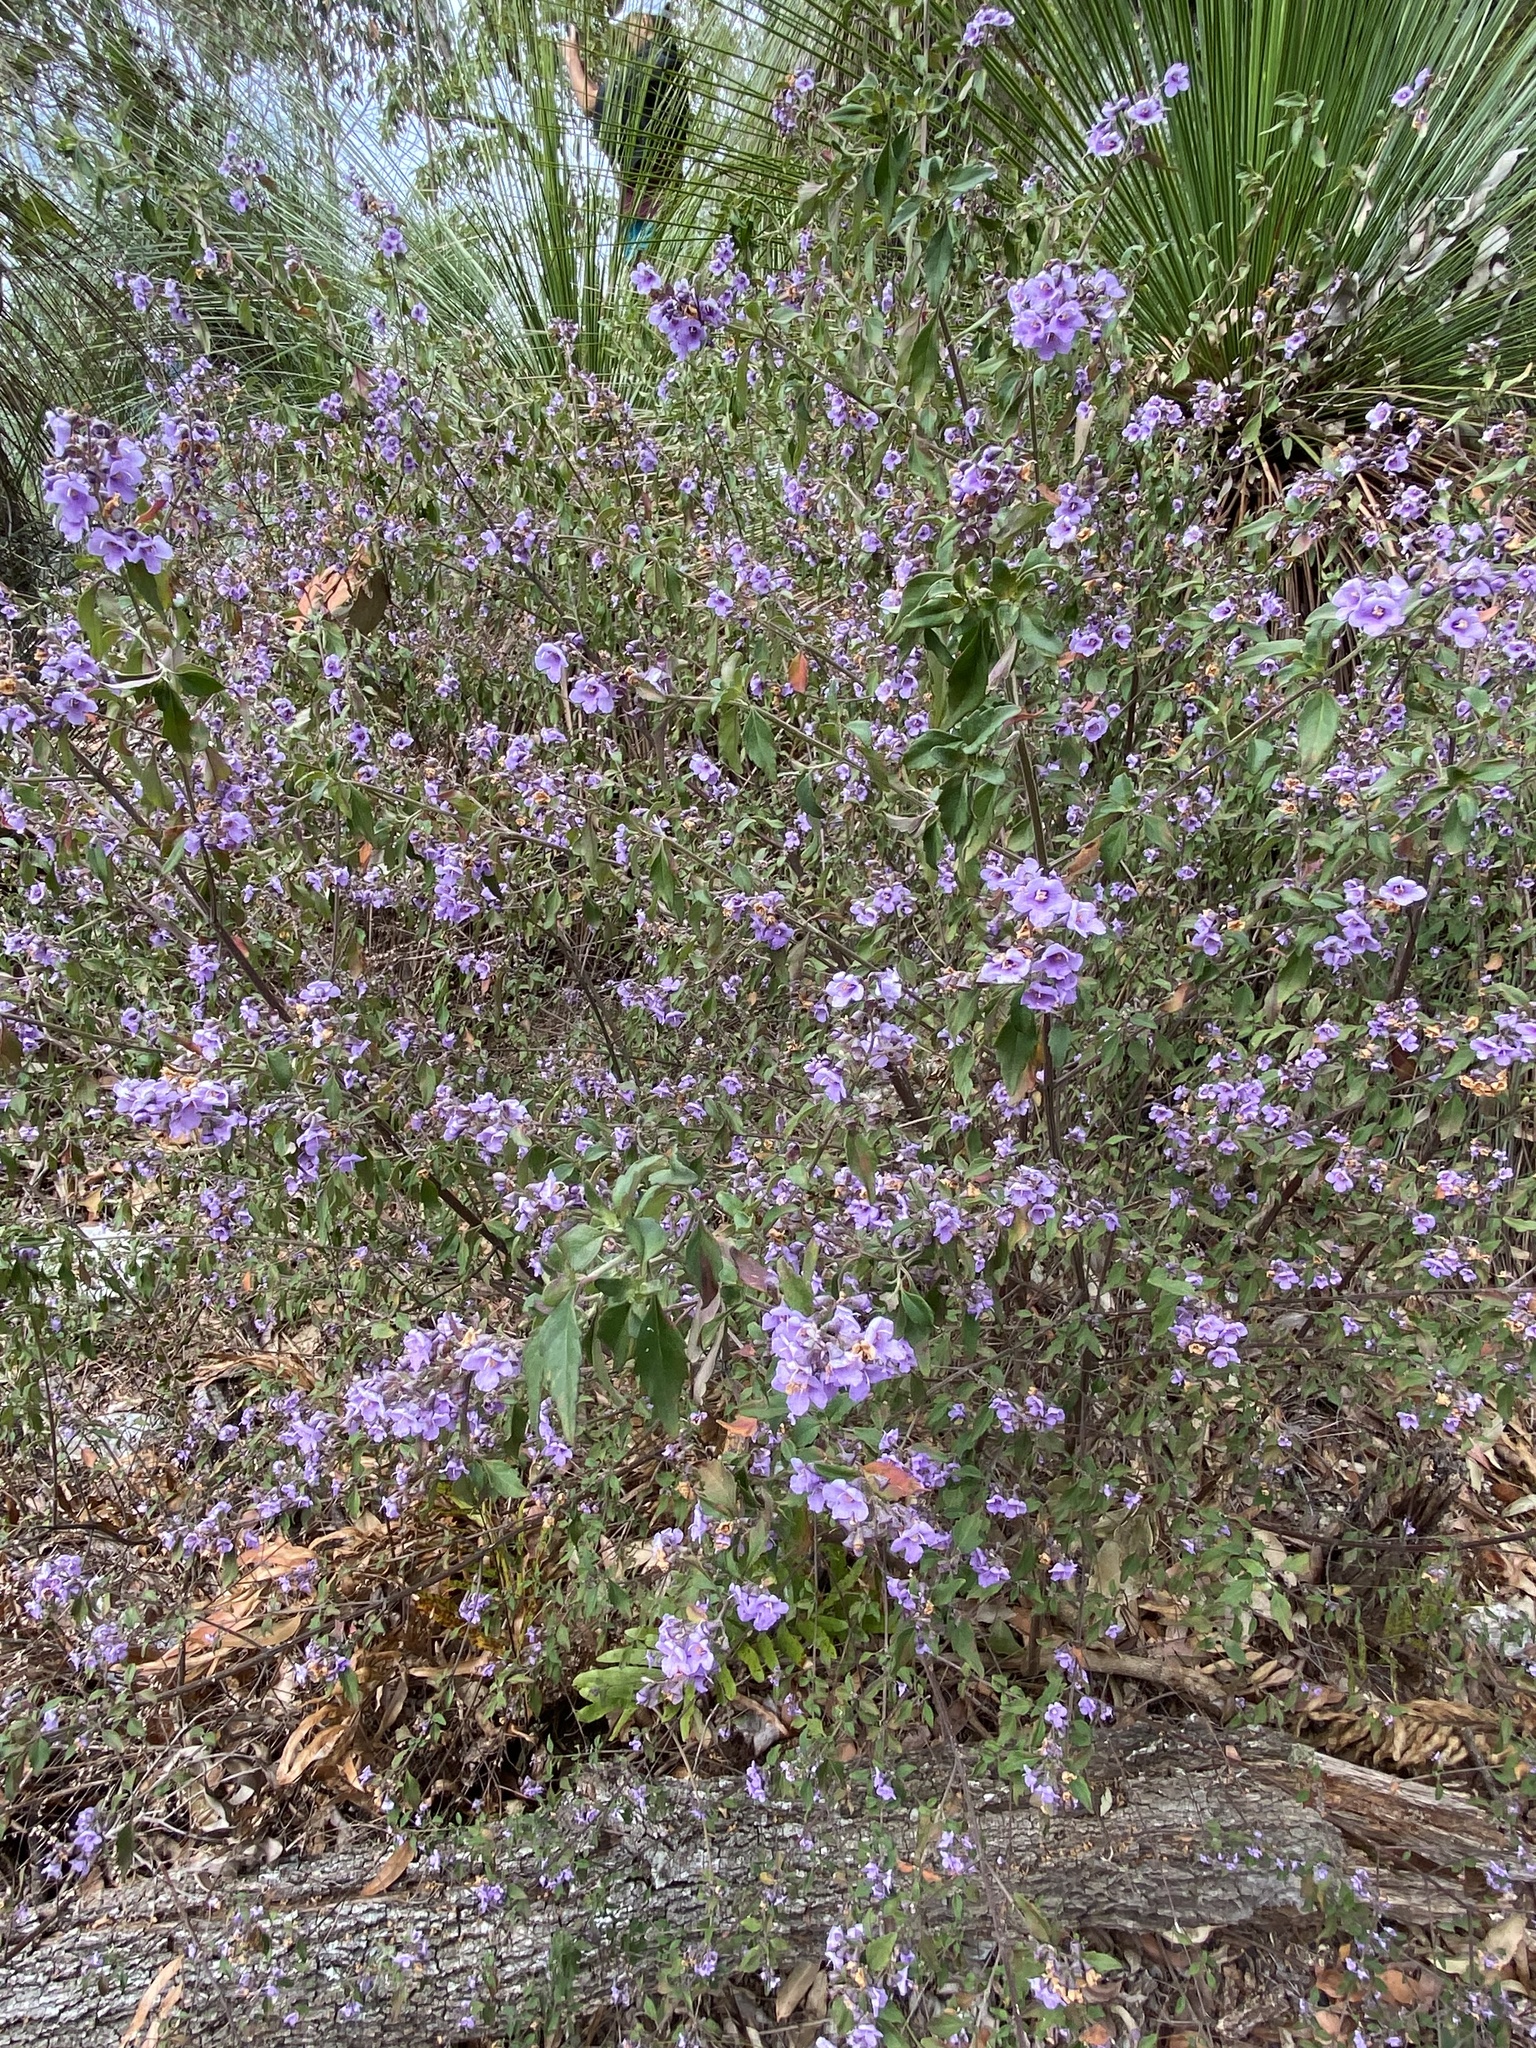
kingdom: Plantae
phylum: Tracheophyta
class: Magnoliopsida
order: Lamiales
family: Lamiaceae
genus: Prostanthera
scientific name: Prostanthera ovalifolia
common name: Purple mintbush
